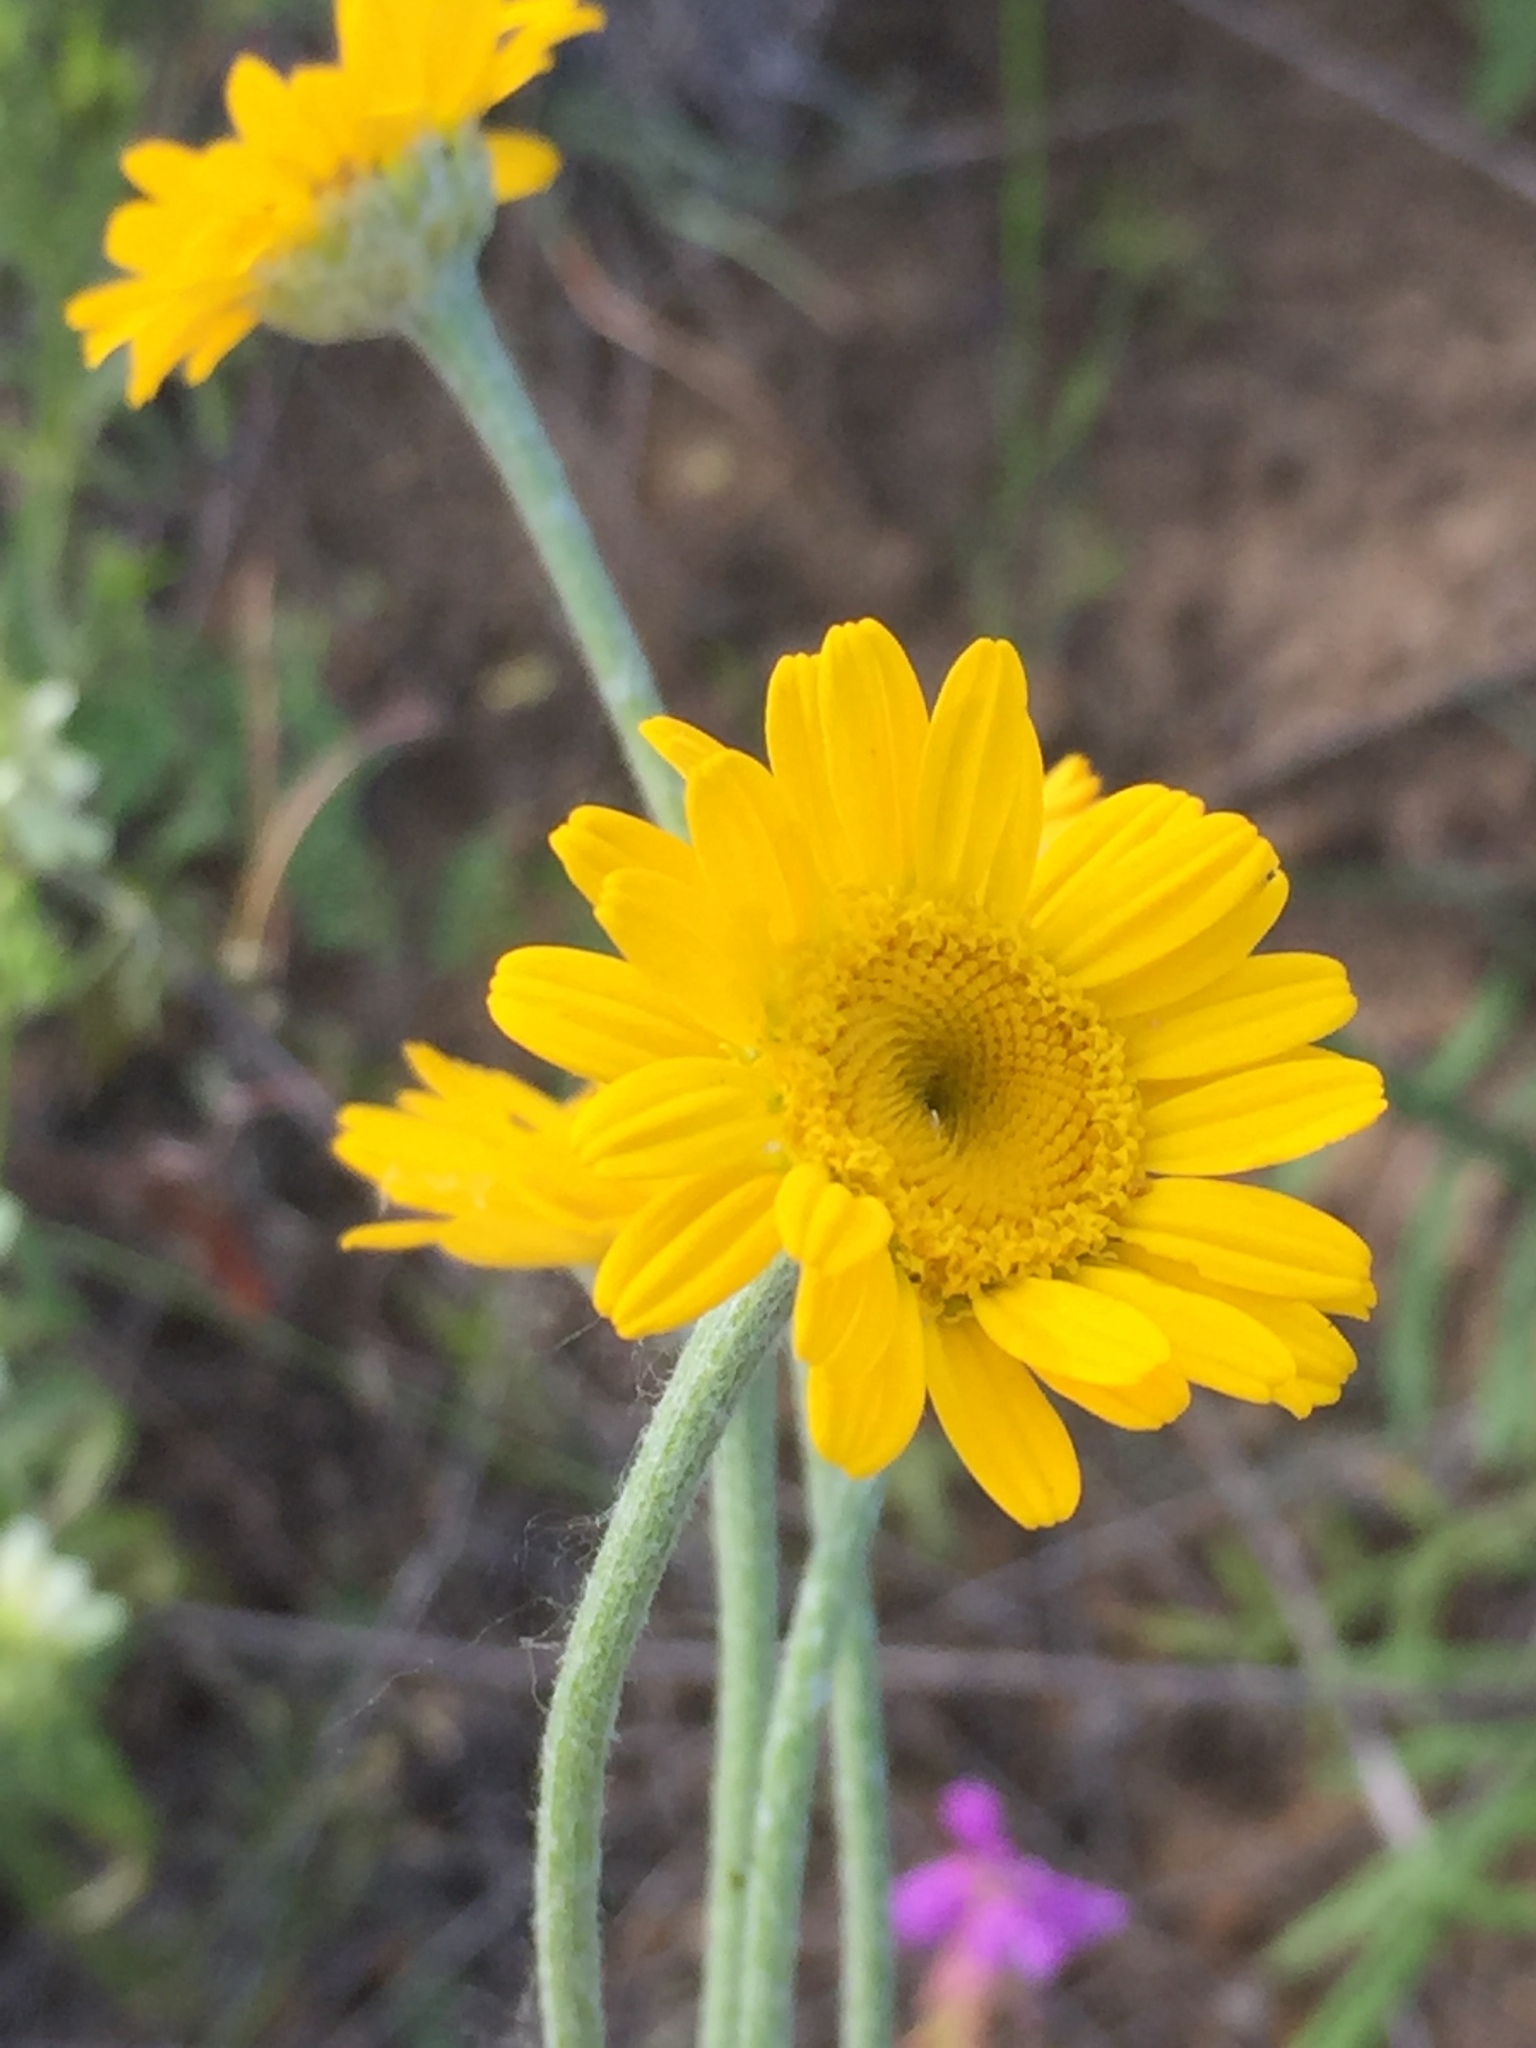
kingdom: Plantae
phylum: Tracheophyta
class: Magnoliopsida
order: Asterales
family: Asteraceae
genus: Cota
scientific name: Cota tinctoria
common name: Golden chamomile
